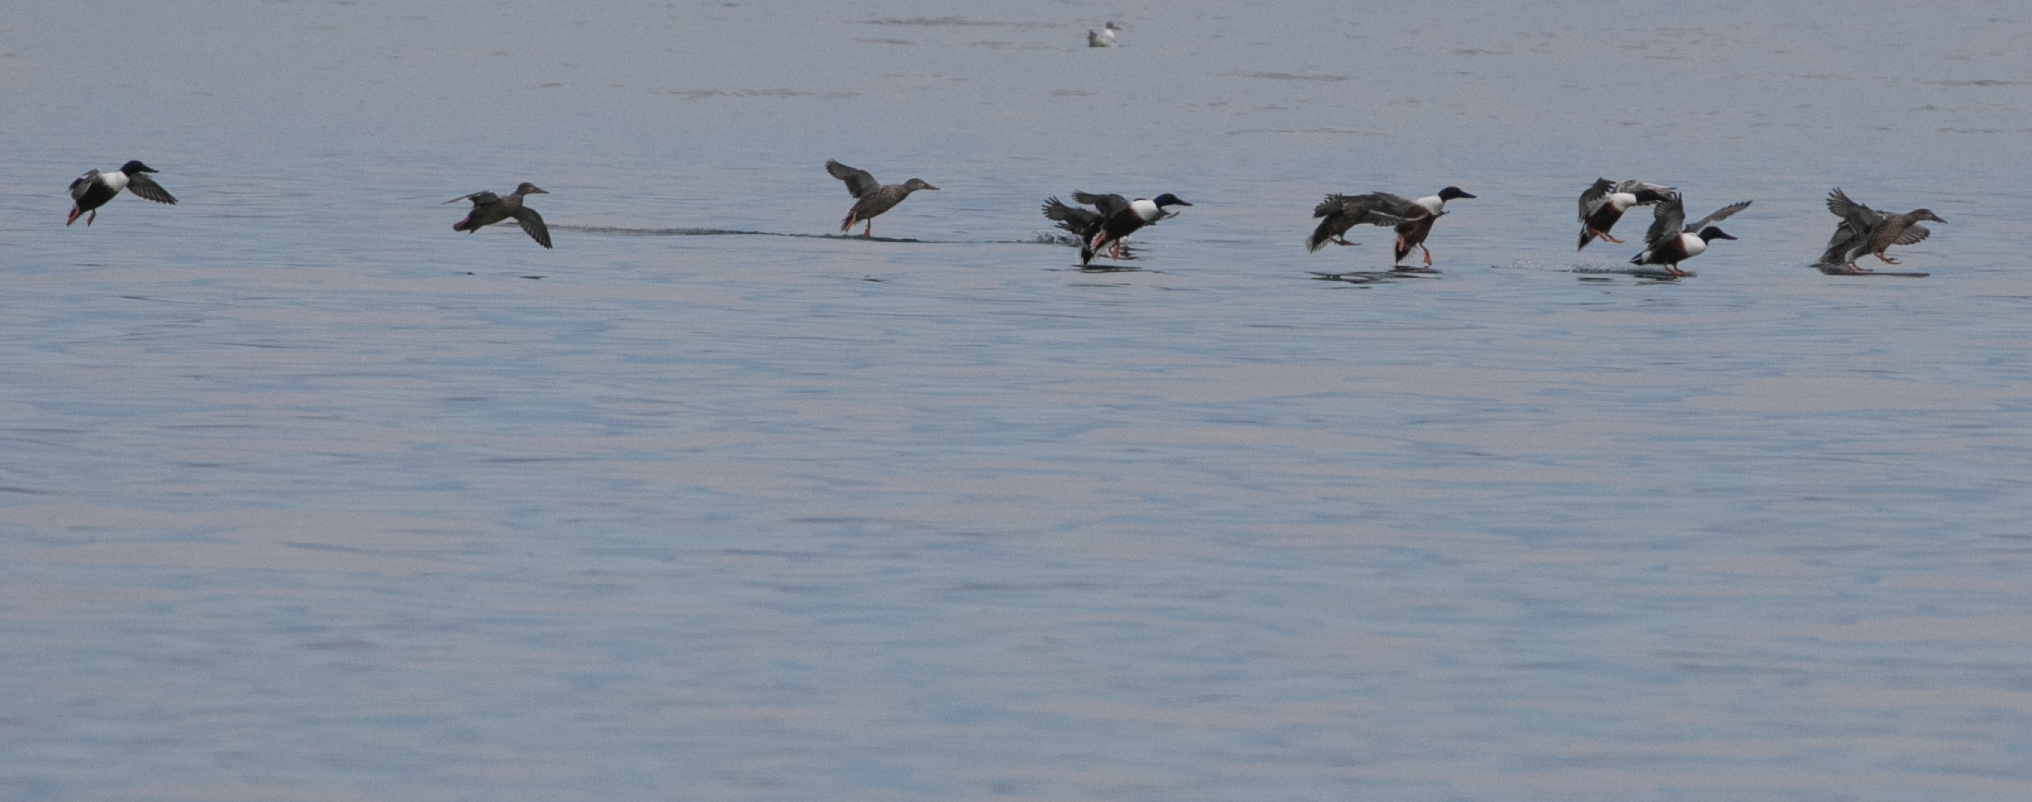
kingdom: Animalia
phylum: Chordata
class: Aves
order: Anseriformes
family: Anatidae
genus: Spatula
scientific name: Spatula clypeata
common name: Northern shoveler
